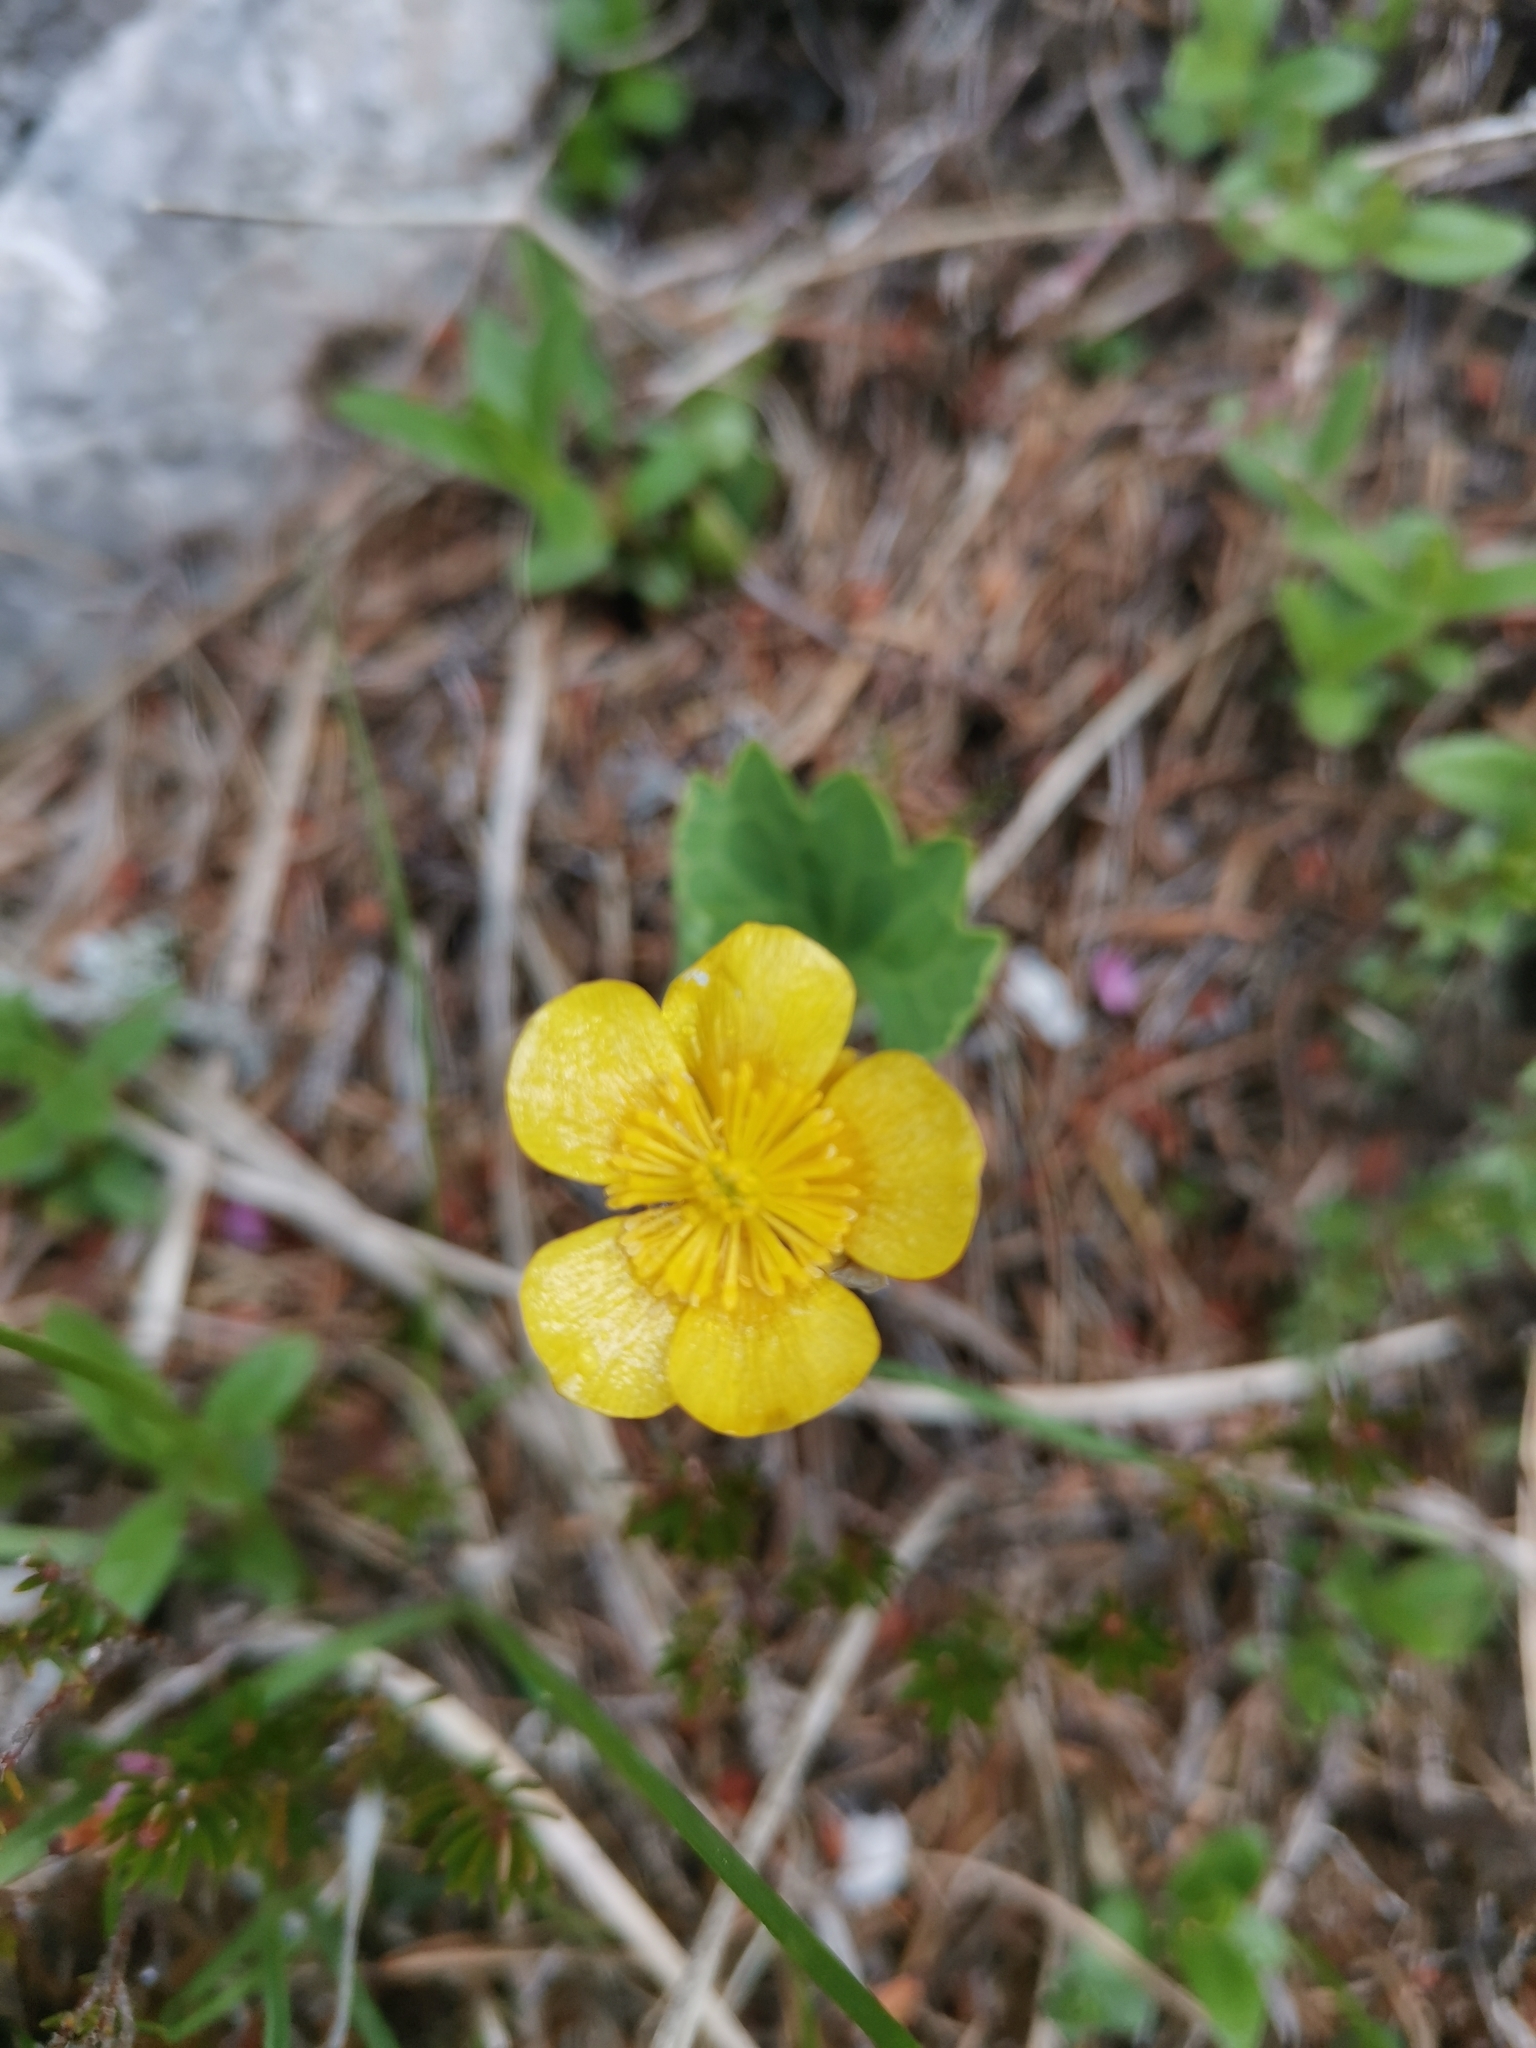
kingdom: Plantae
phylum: Tracheophyta
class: Magnoliopsida
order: Ranunculales
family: Ranunculaceae
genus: Ranunculus
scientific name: Ranunculus hybridus
